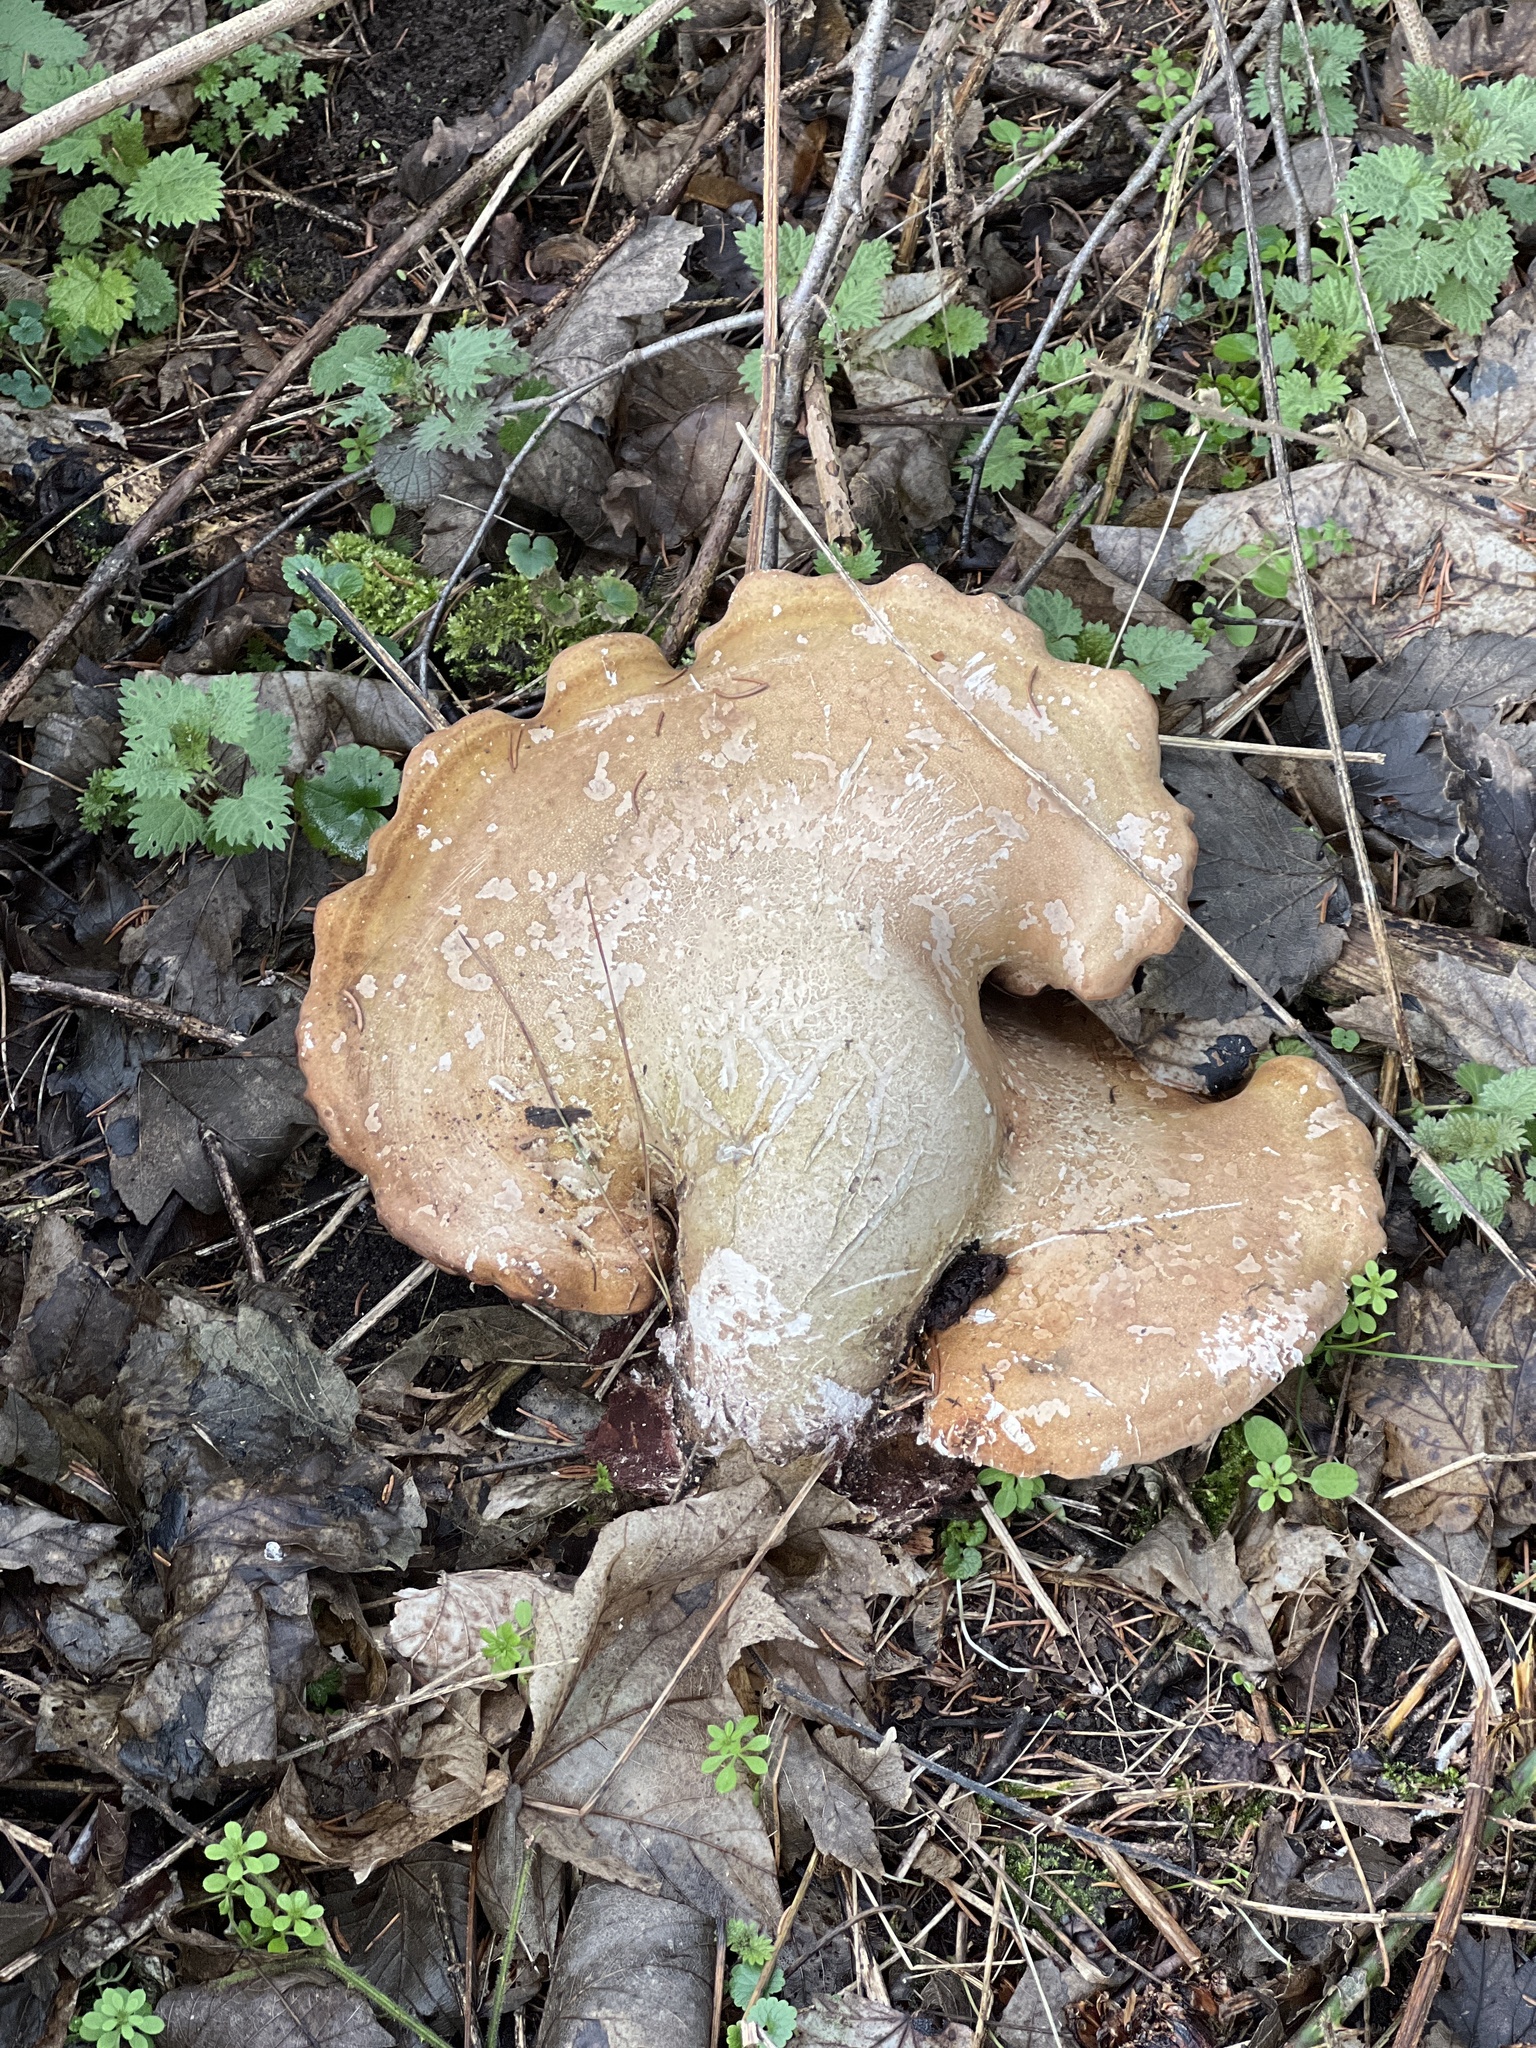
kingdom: Fungi
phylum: Basidiomycota
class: Agaricomycetes
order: Polyporales
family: Fomitopsidaceae
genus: Fomitopsis
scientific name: Fomitopsis betulina
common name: Birch polypore
